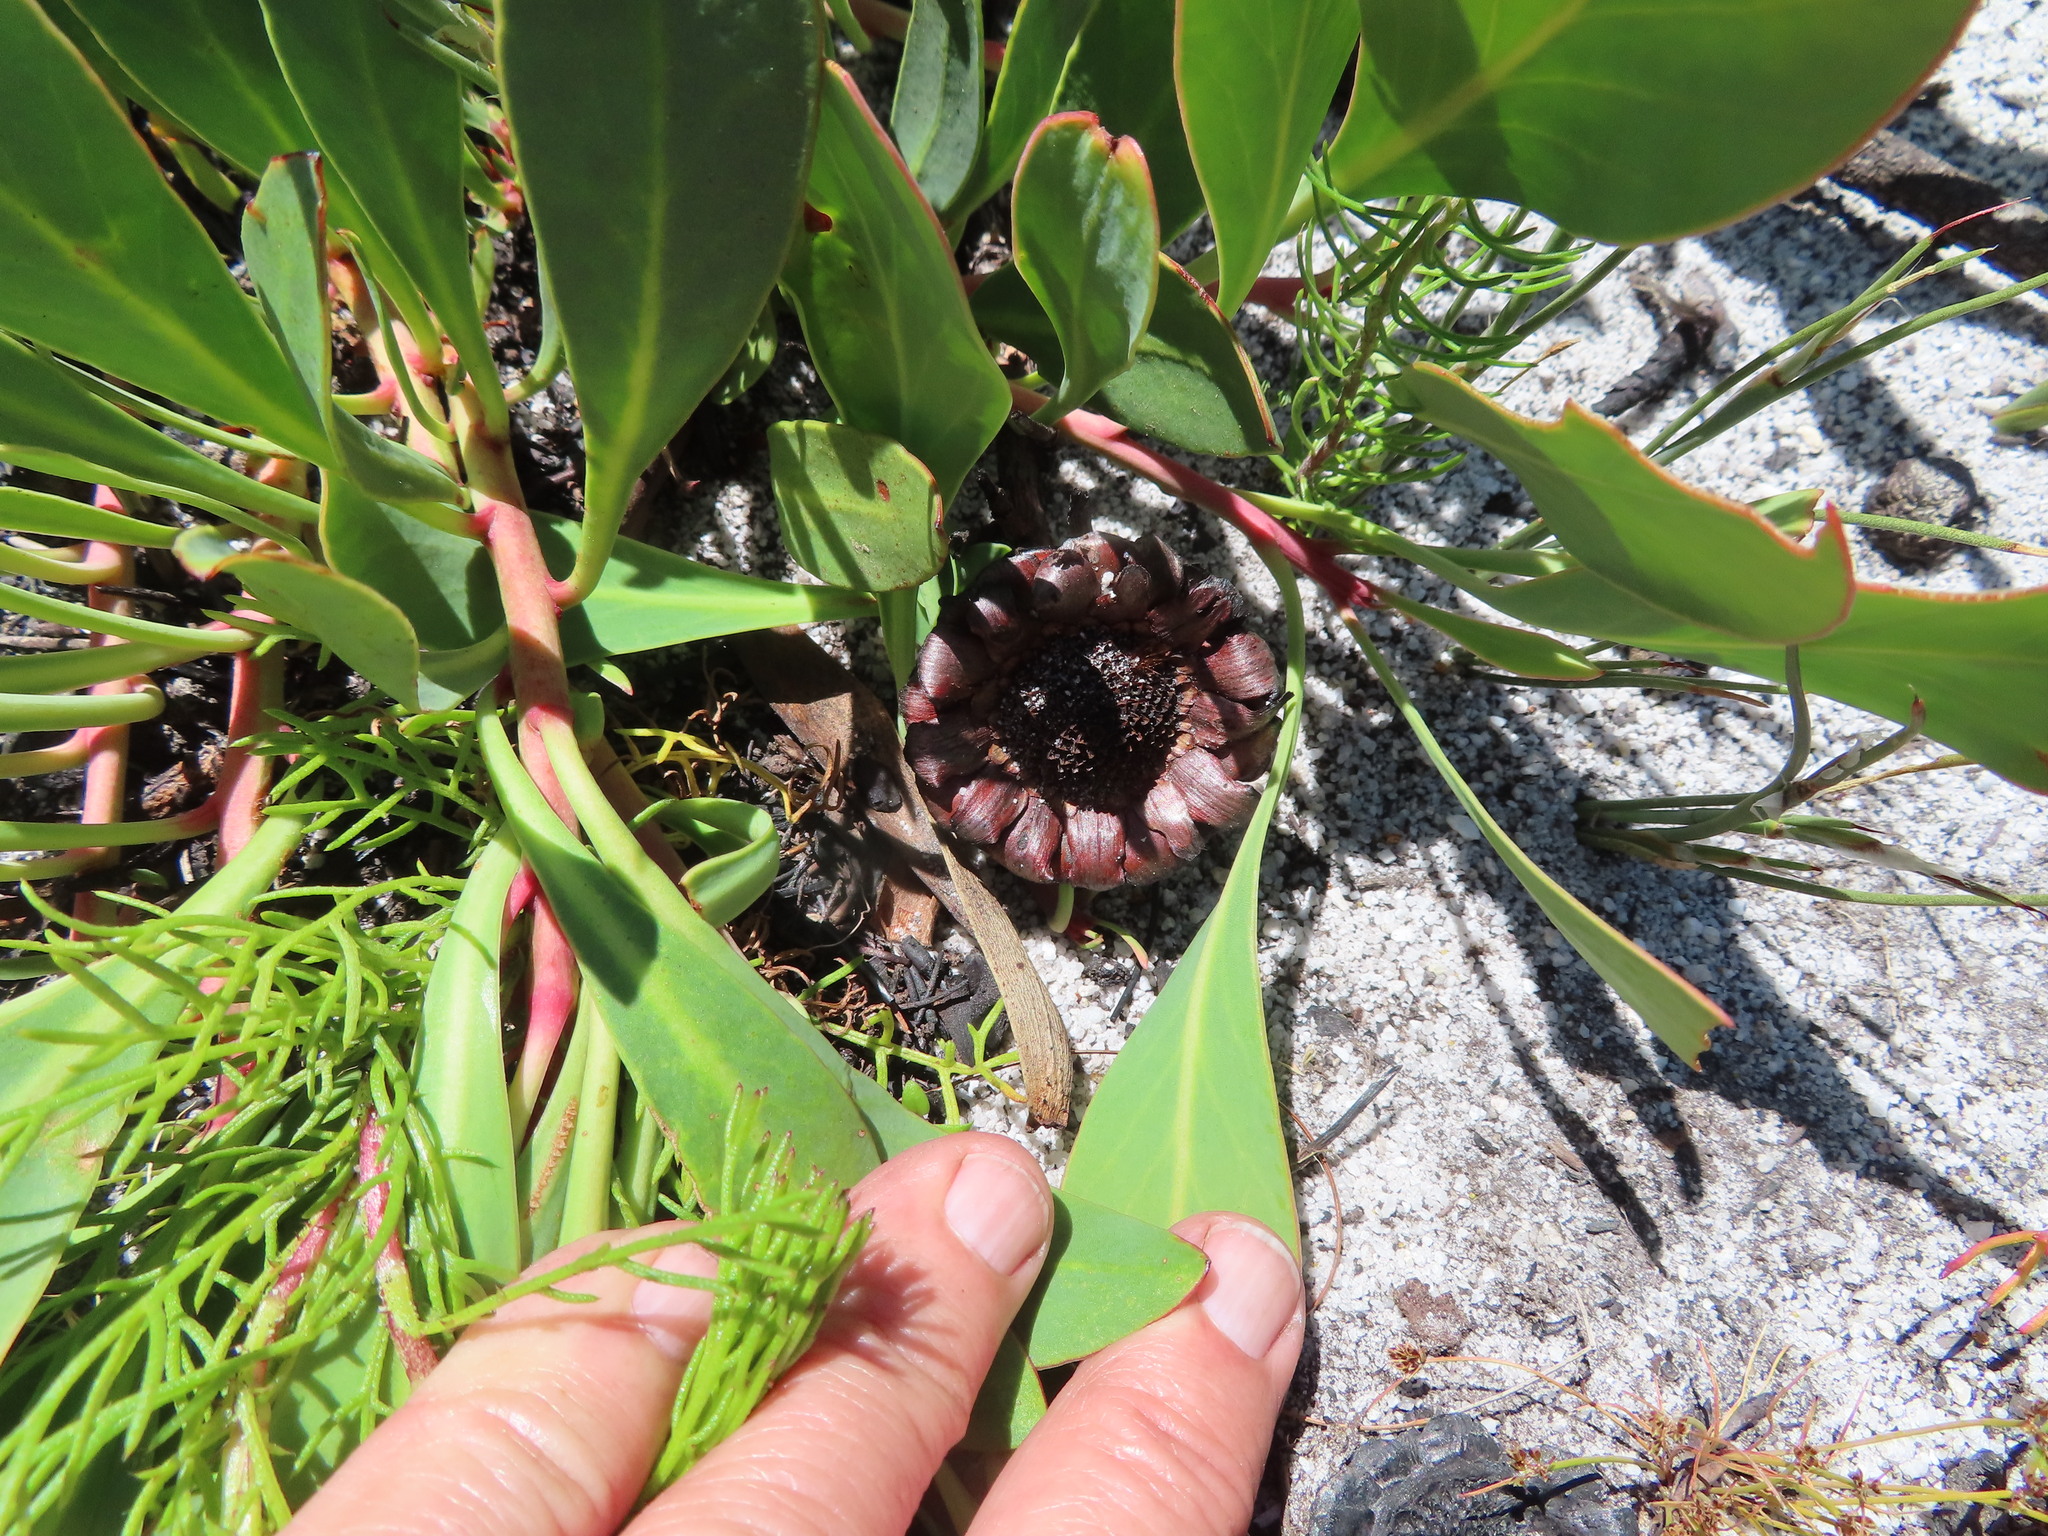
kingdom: Plantae
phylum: Tracheophyta
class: Magnoliopsida
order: Proteales
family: Proteaceae
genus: Protea
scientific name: Protea acaulos
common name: Common ground sugarbush
